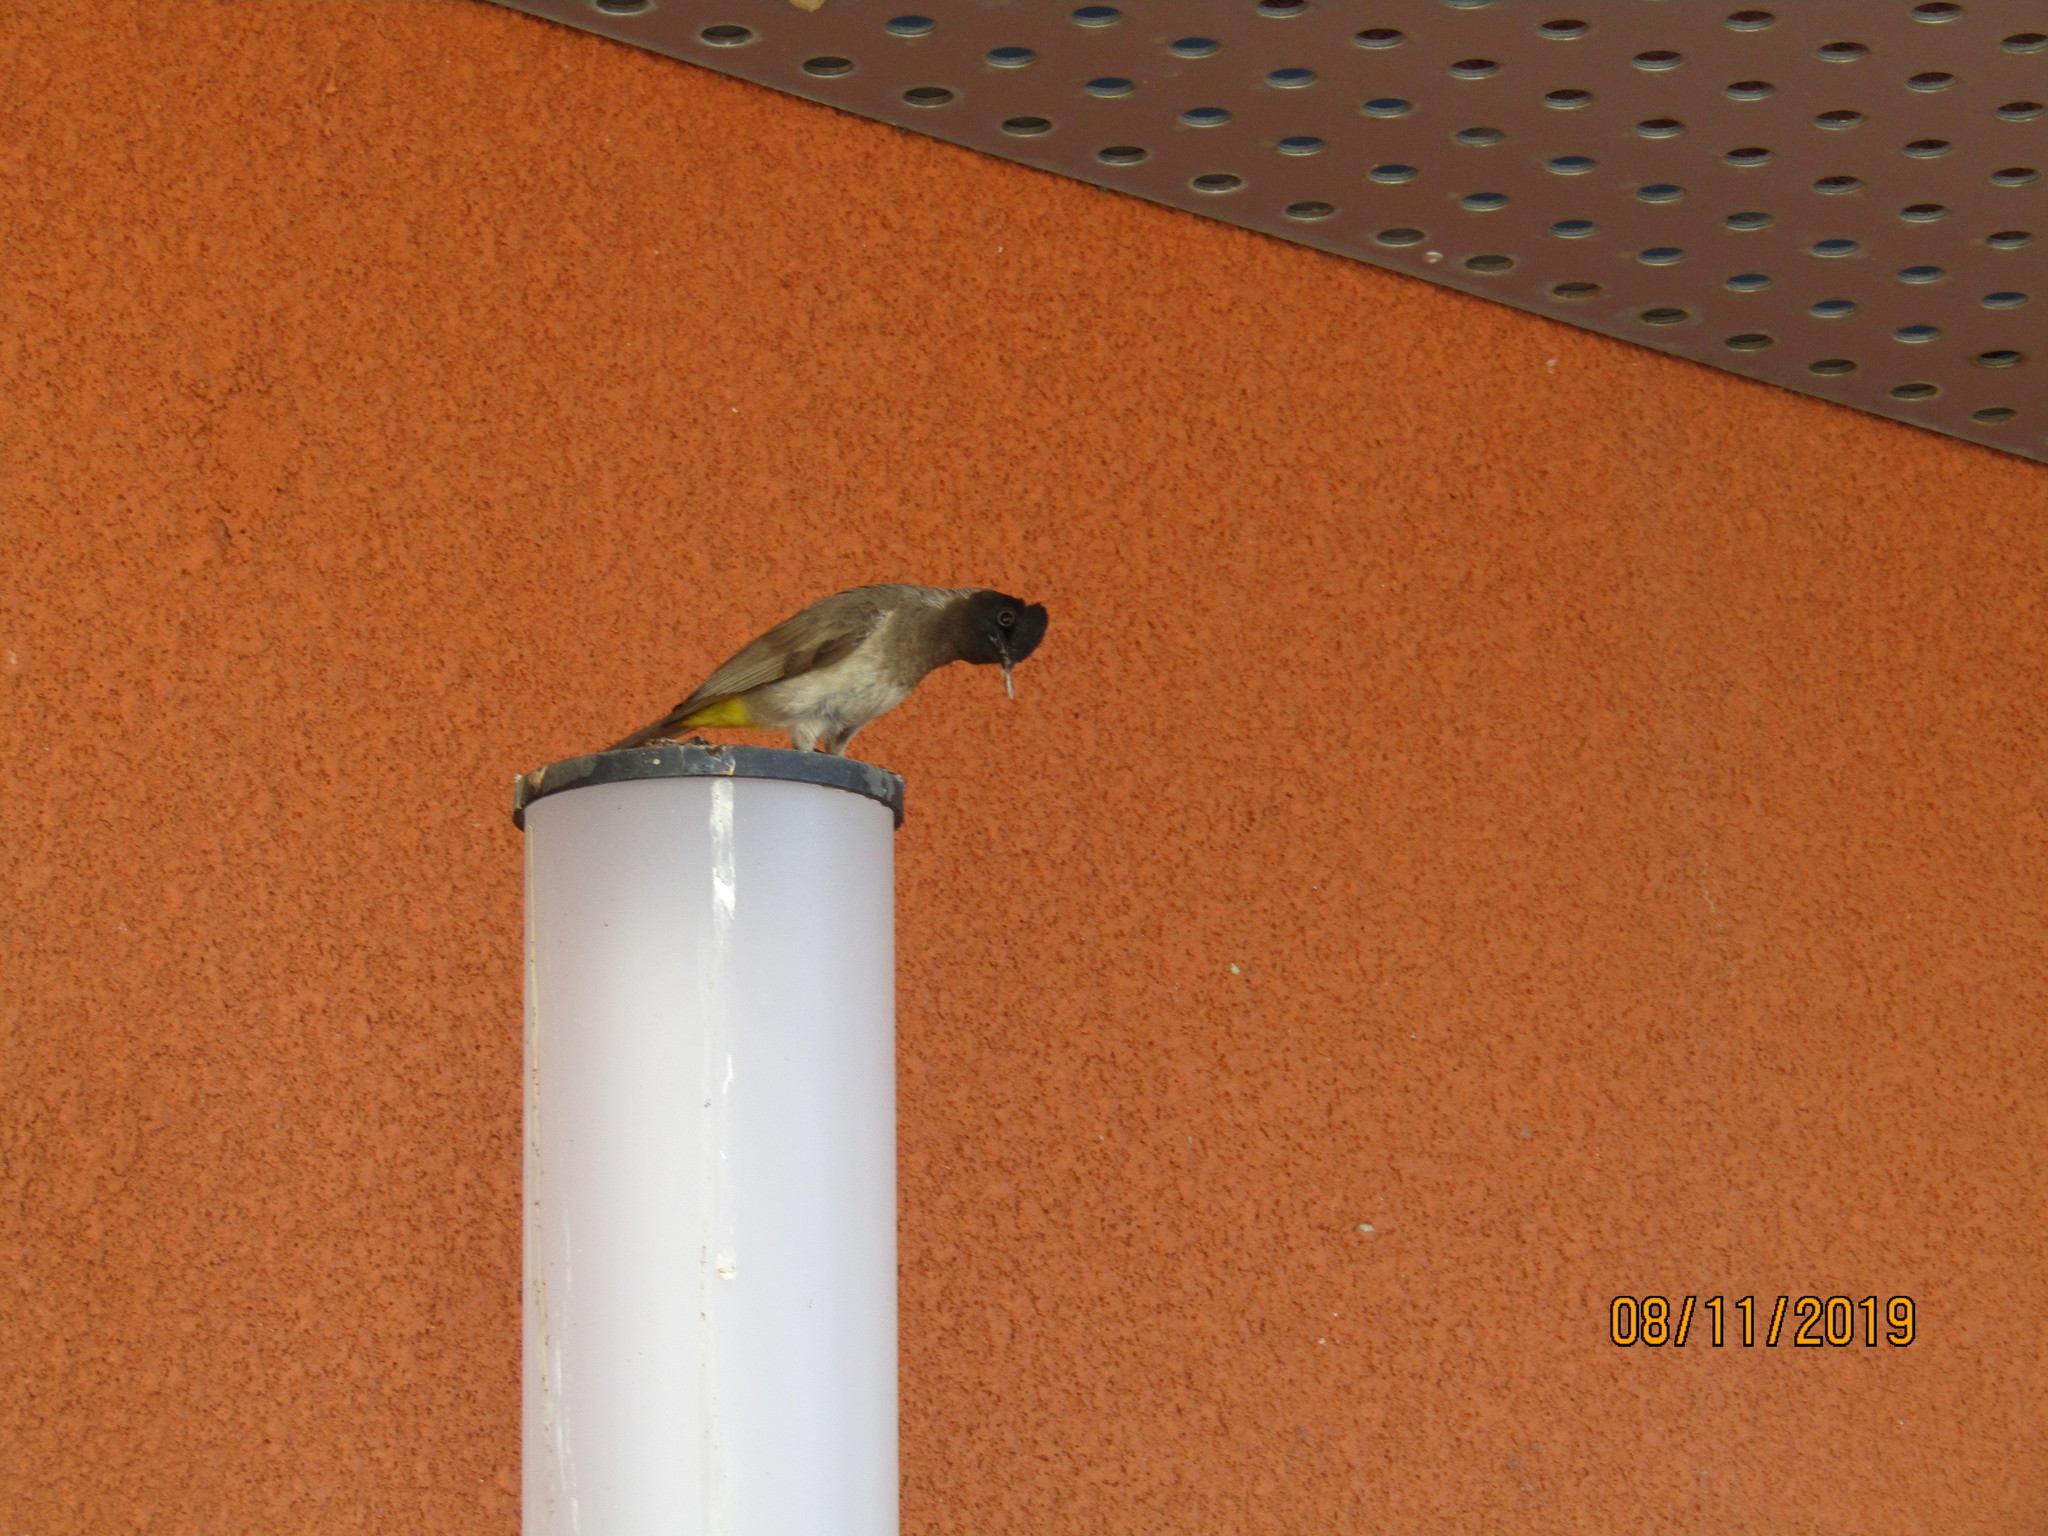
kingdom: Animalia
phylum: Chordata
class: Aves
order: Passeriformes
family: Pycnonotidae
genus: Pycnonotus
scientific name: Pycnonotus barbatus
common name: Common bulbul
